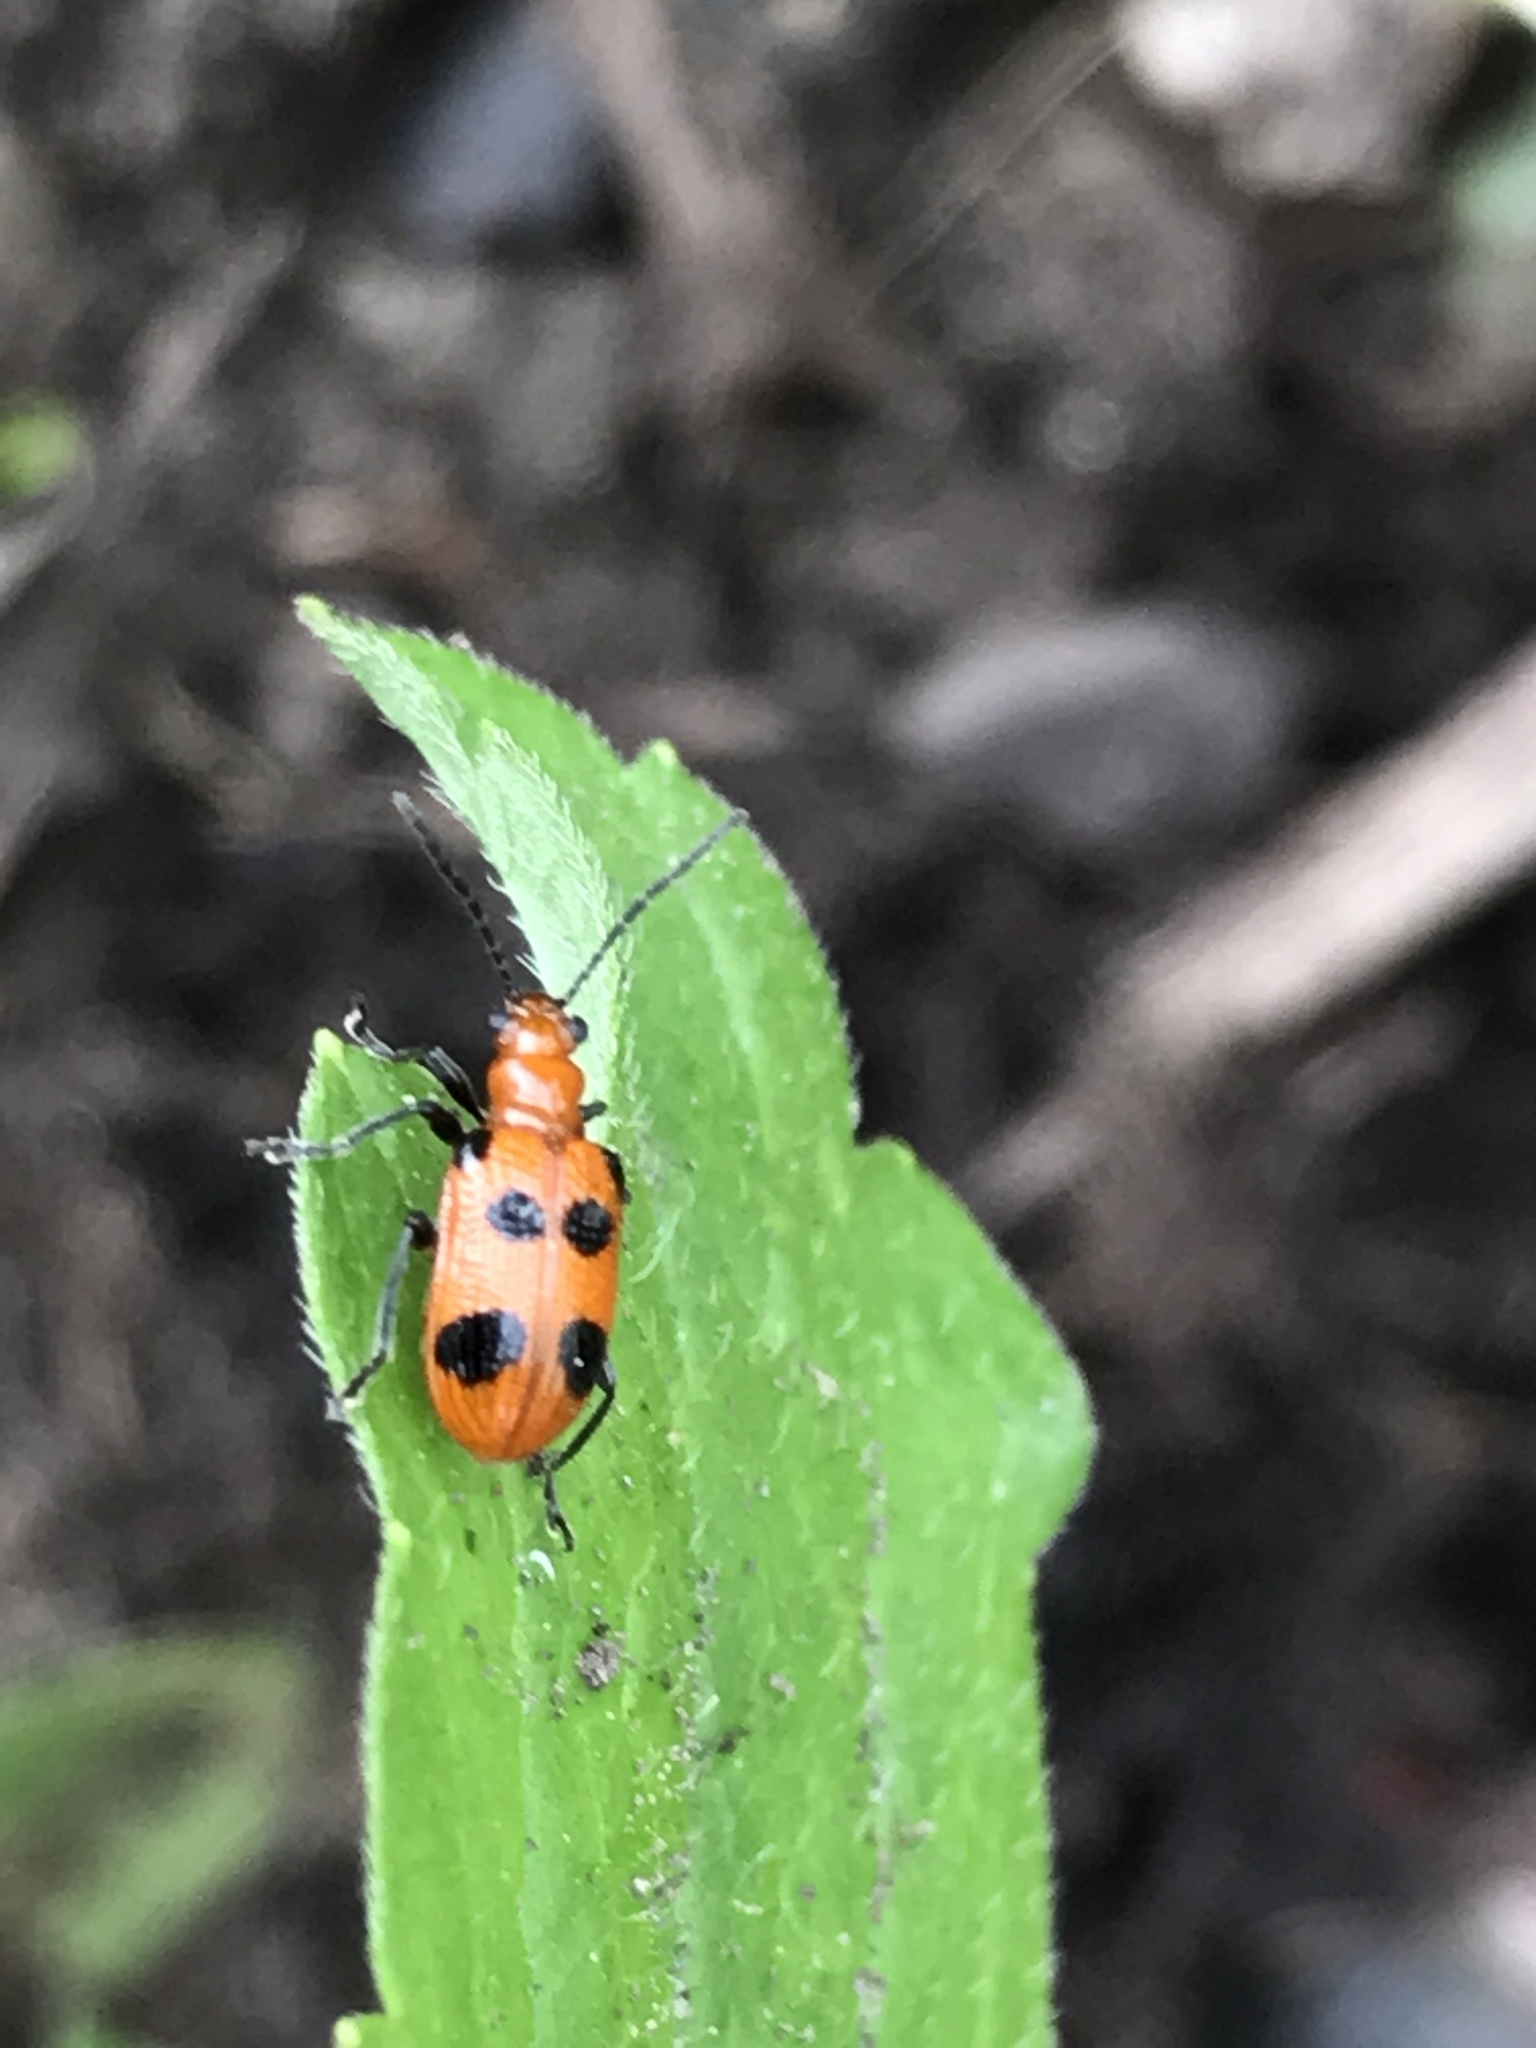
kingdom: Animalia
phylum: Arthropoda
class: Insecta
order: Coleoptera
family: Chrysomelidae
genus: Neolema
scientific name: Neolema sexpunctata
